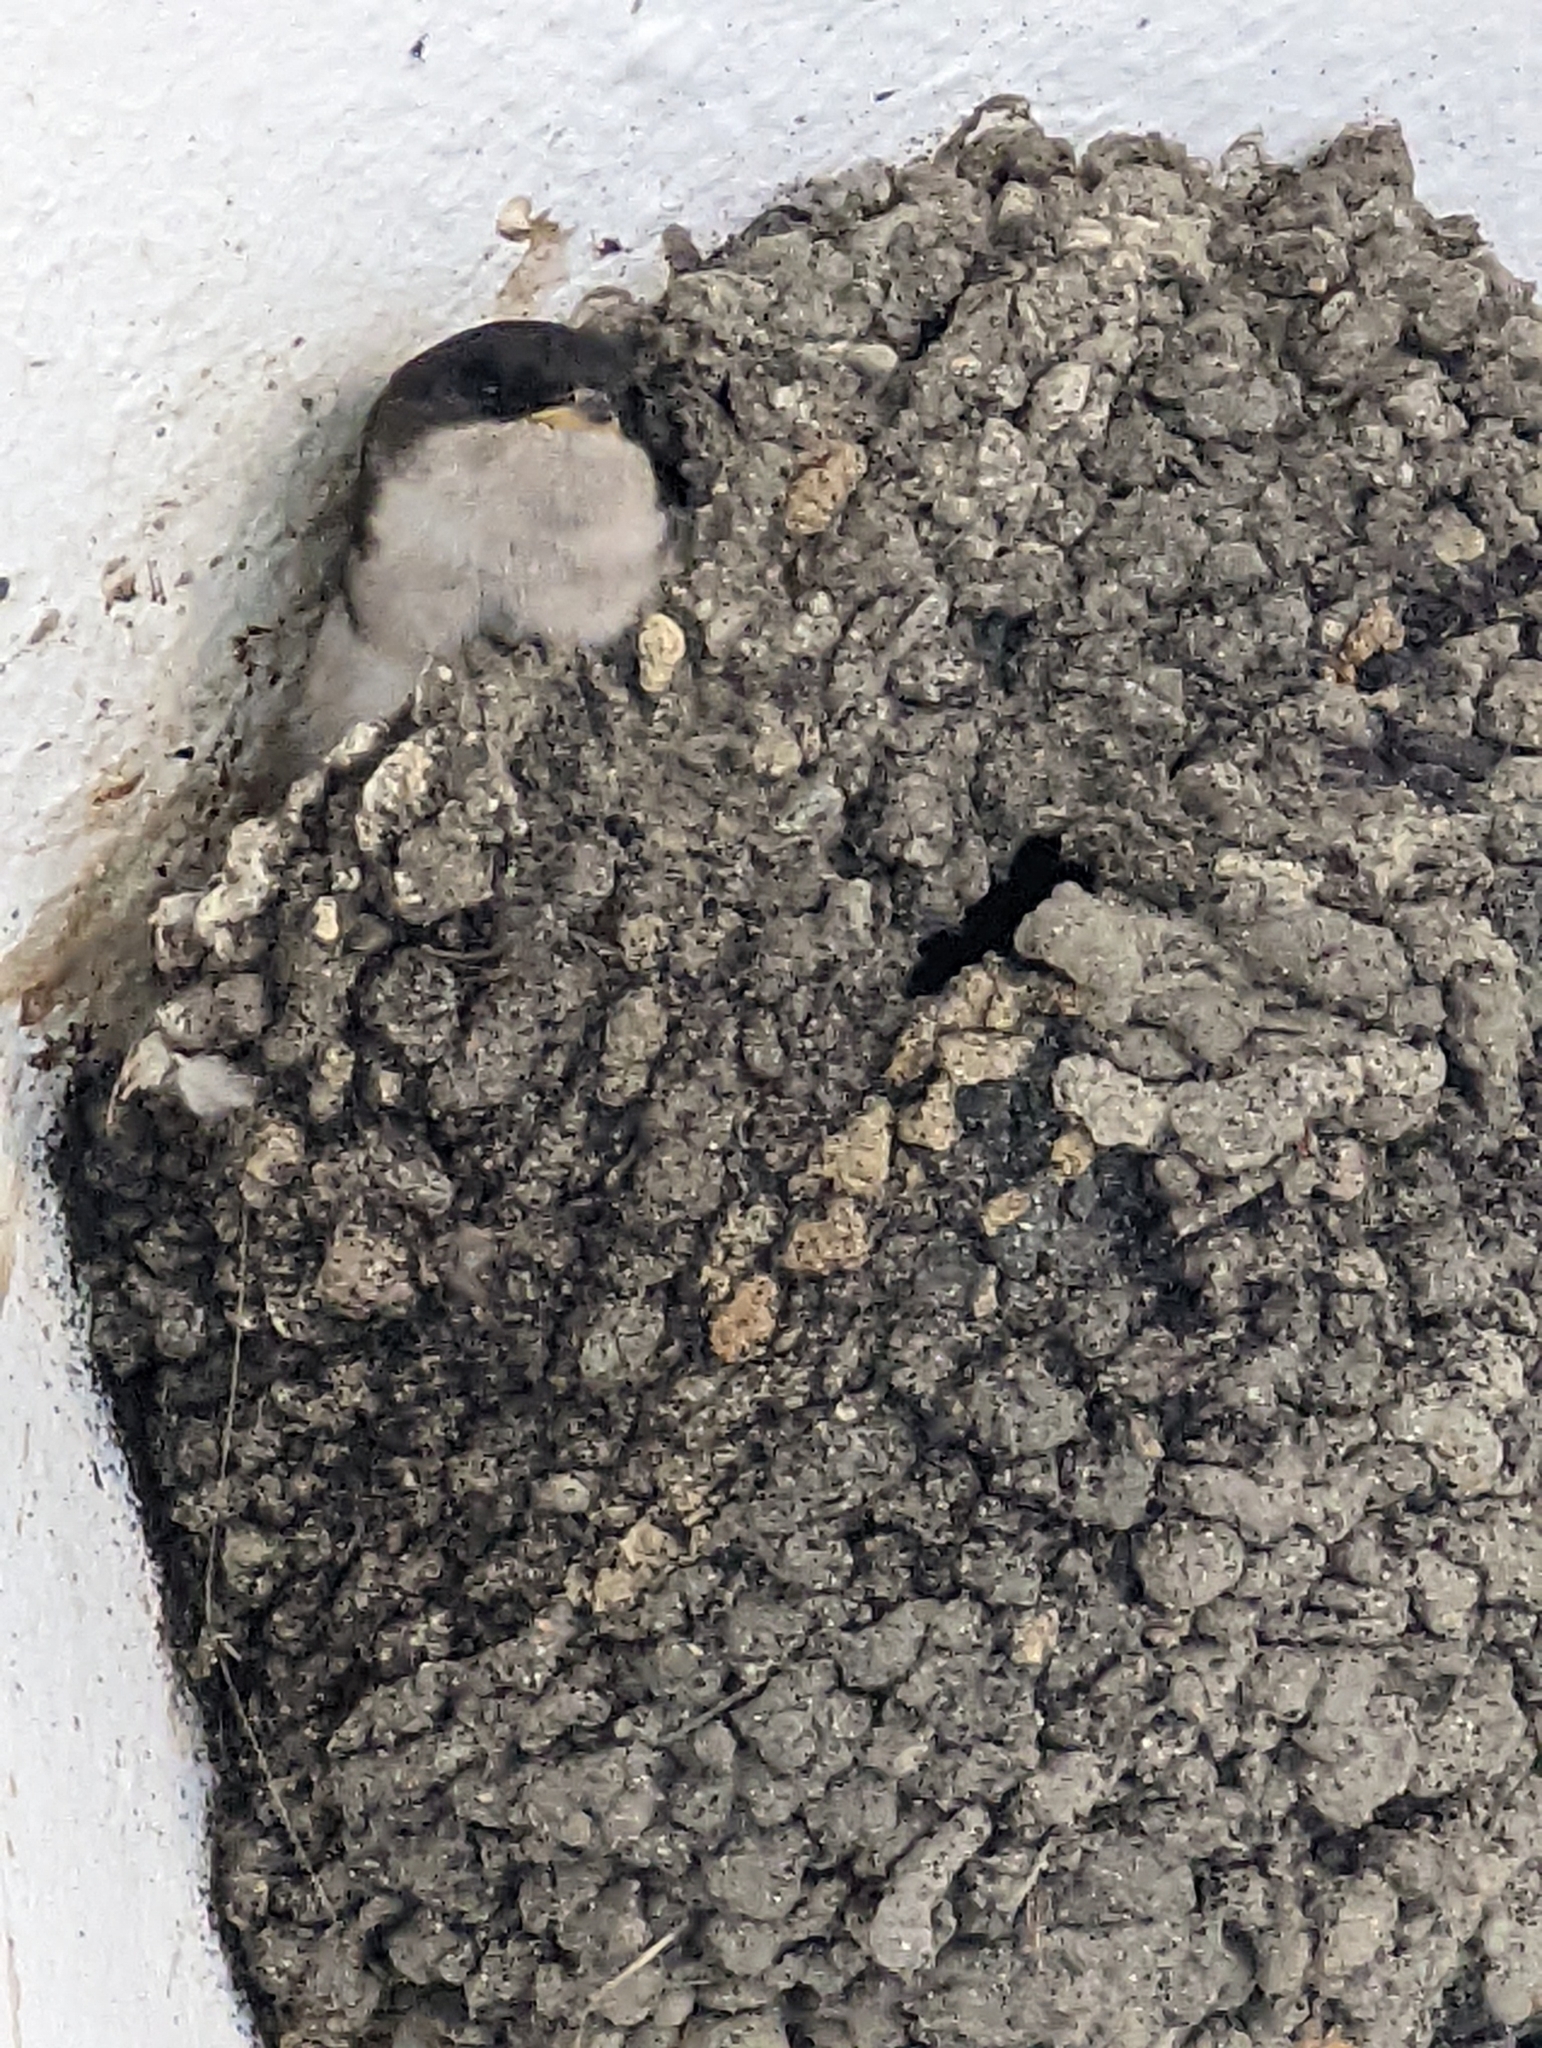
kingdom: Animalia
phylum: Chordata
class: Aves
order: Passeriformes
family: Hirundinidae
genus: Delichon
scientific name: Delichon urbicum
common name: Common house martin
